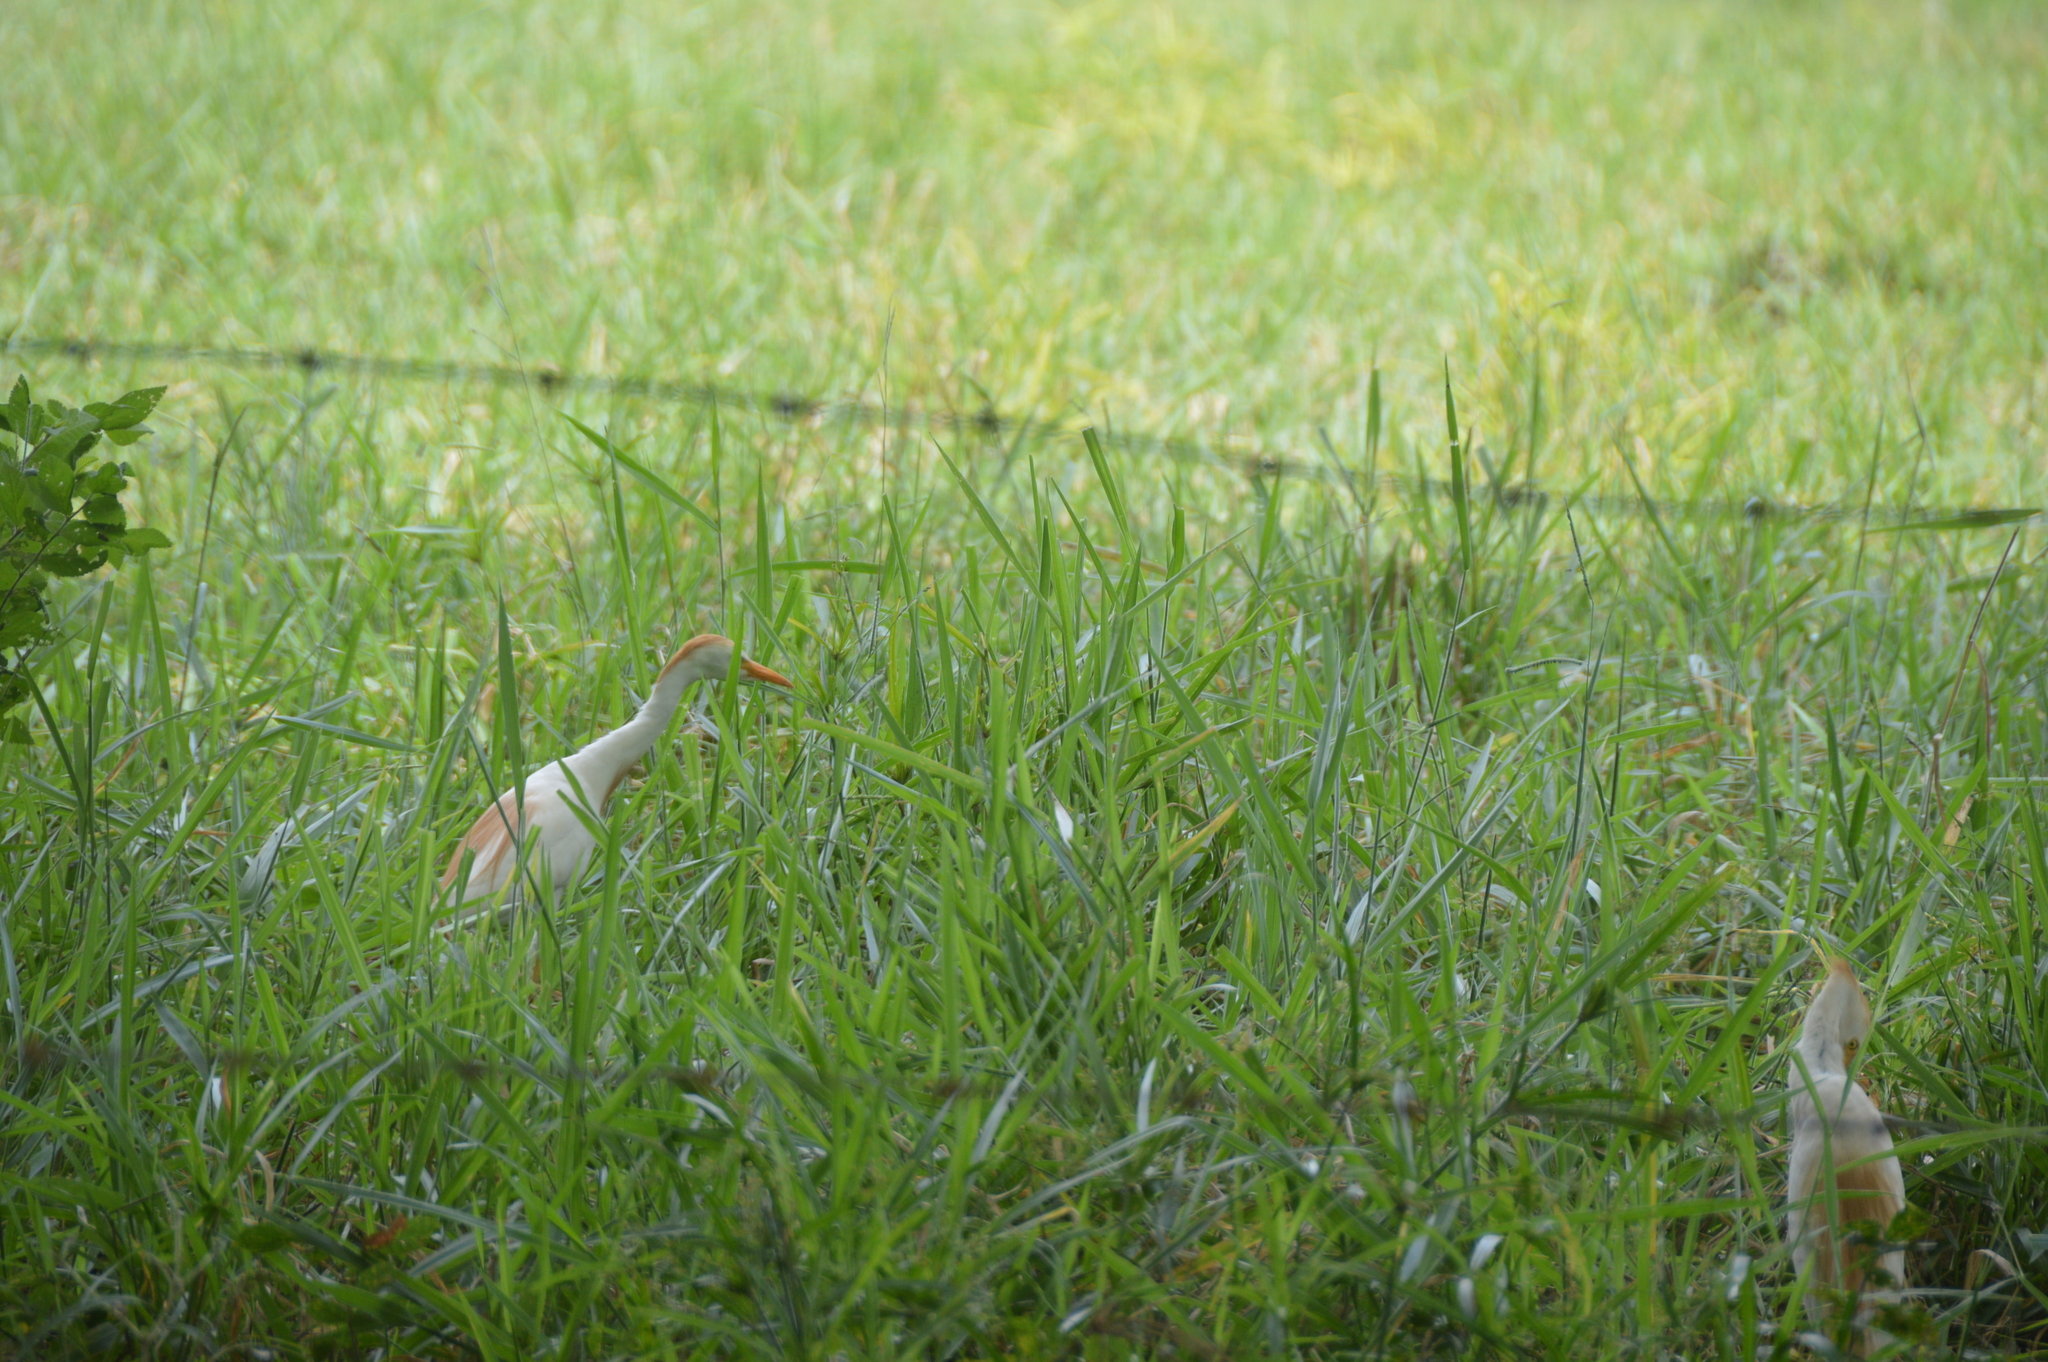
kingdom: Animalia
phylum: Chordata
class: Aves
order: Pelecaniformes
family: Ardeidae
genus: Bubulcus
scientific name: Bubulcus ibis
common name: Cattle egret
